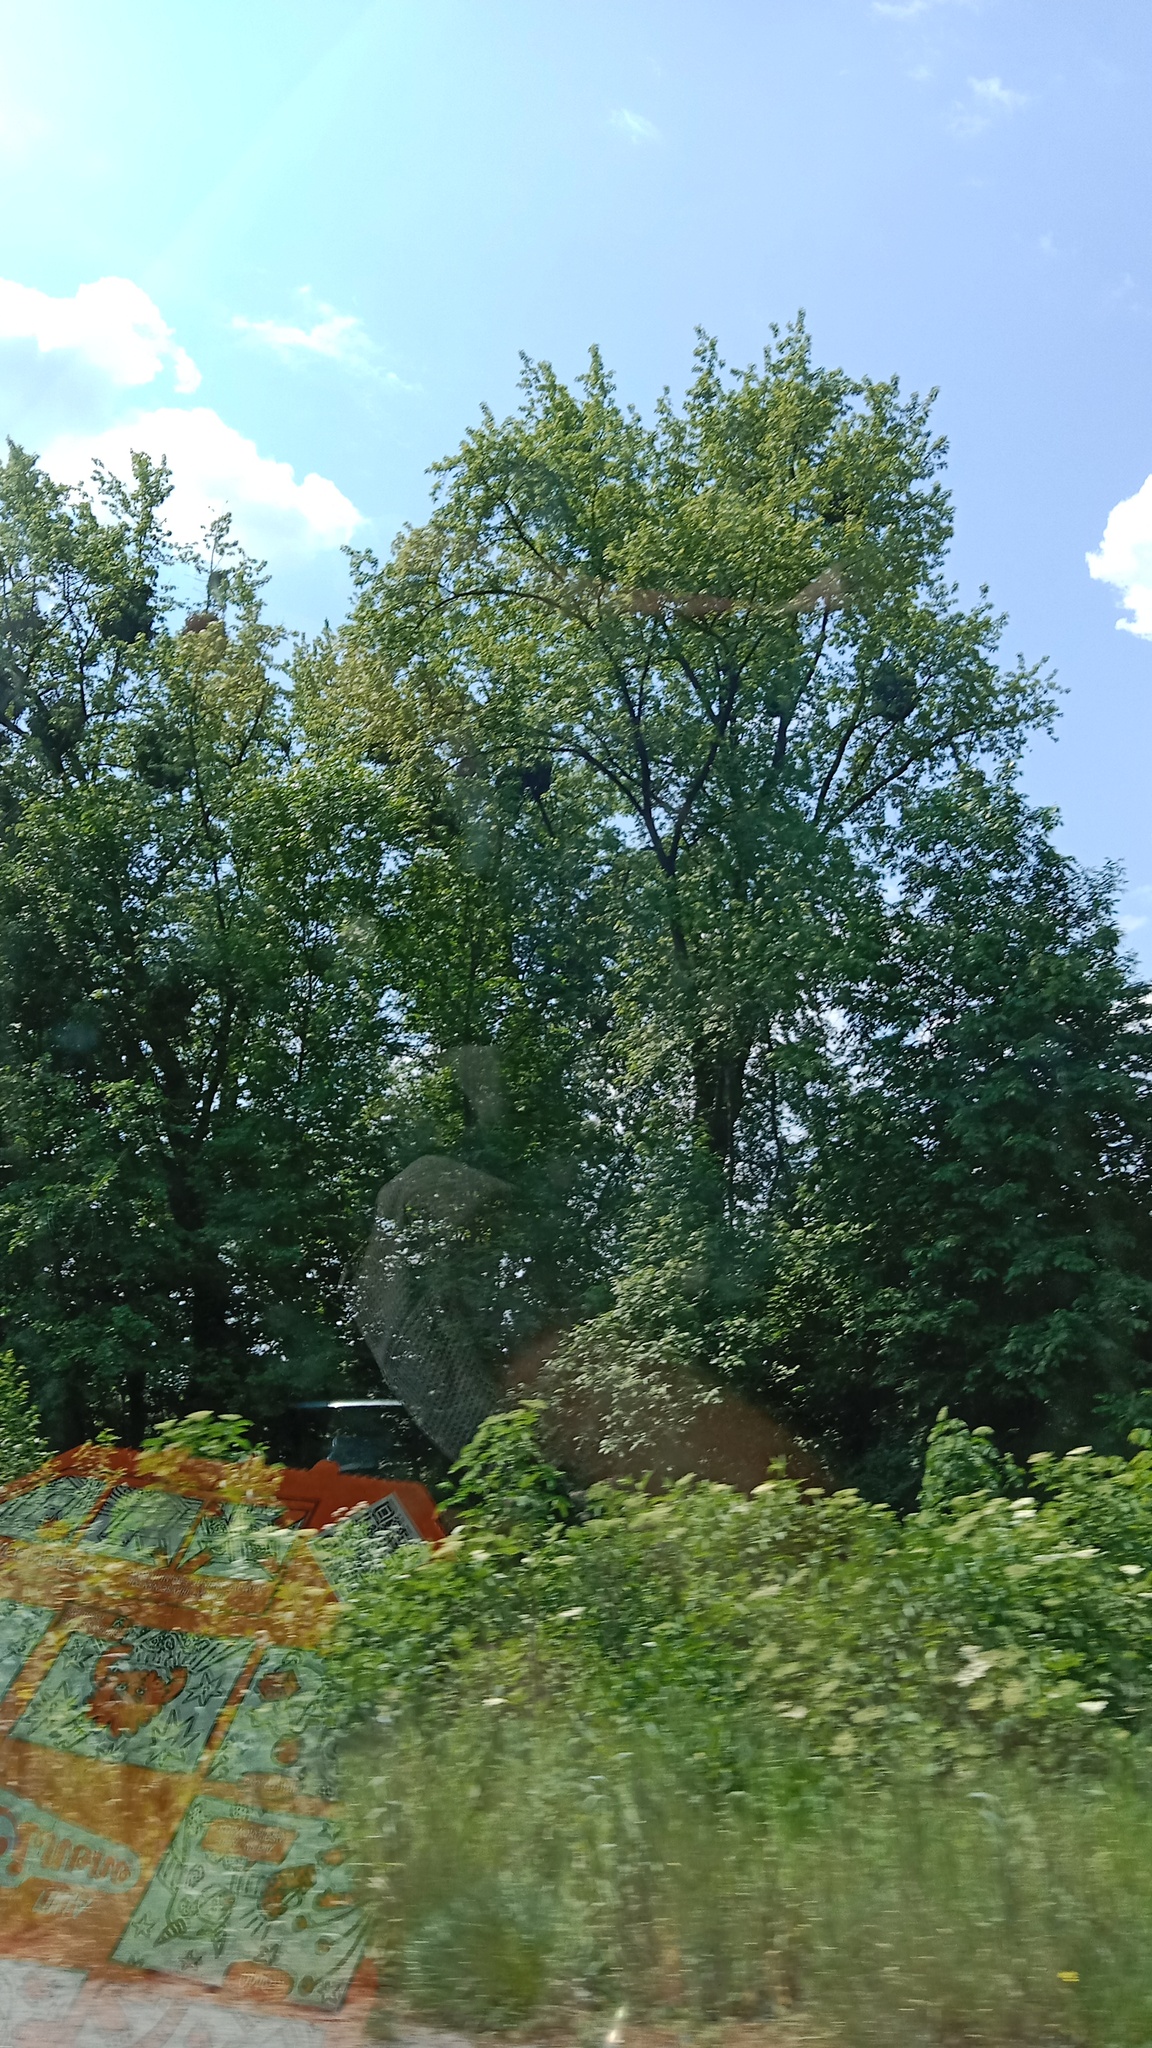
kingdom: Plantae
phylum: Tracheophyta
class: Magnoliopsida
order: Santalales
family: Viscaceae
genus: Viscum
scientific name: Viscum album
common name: Mistletoe
